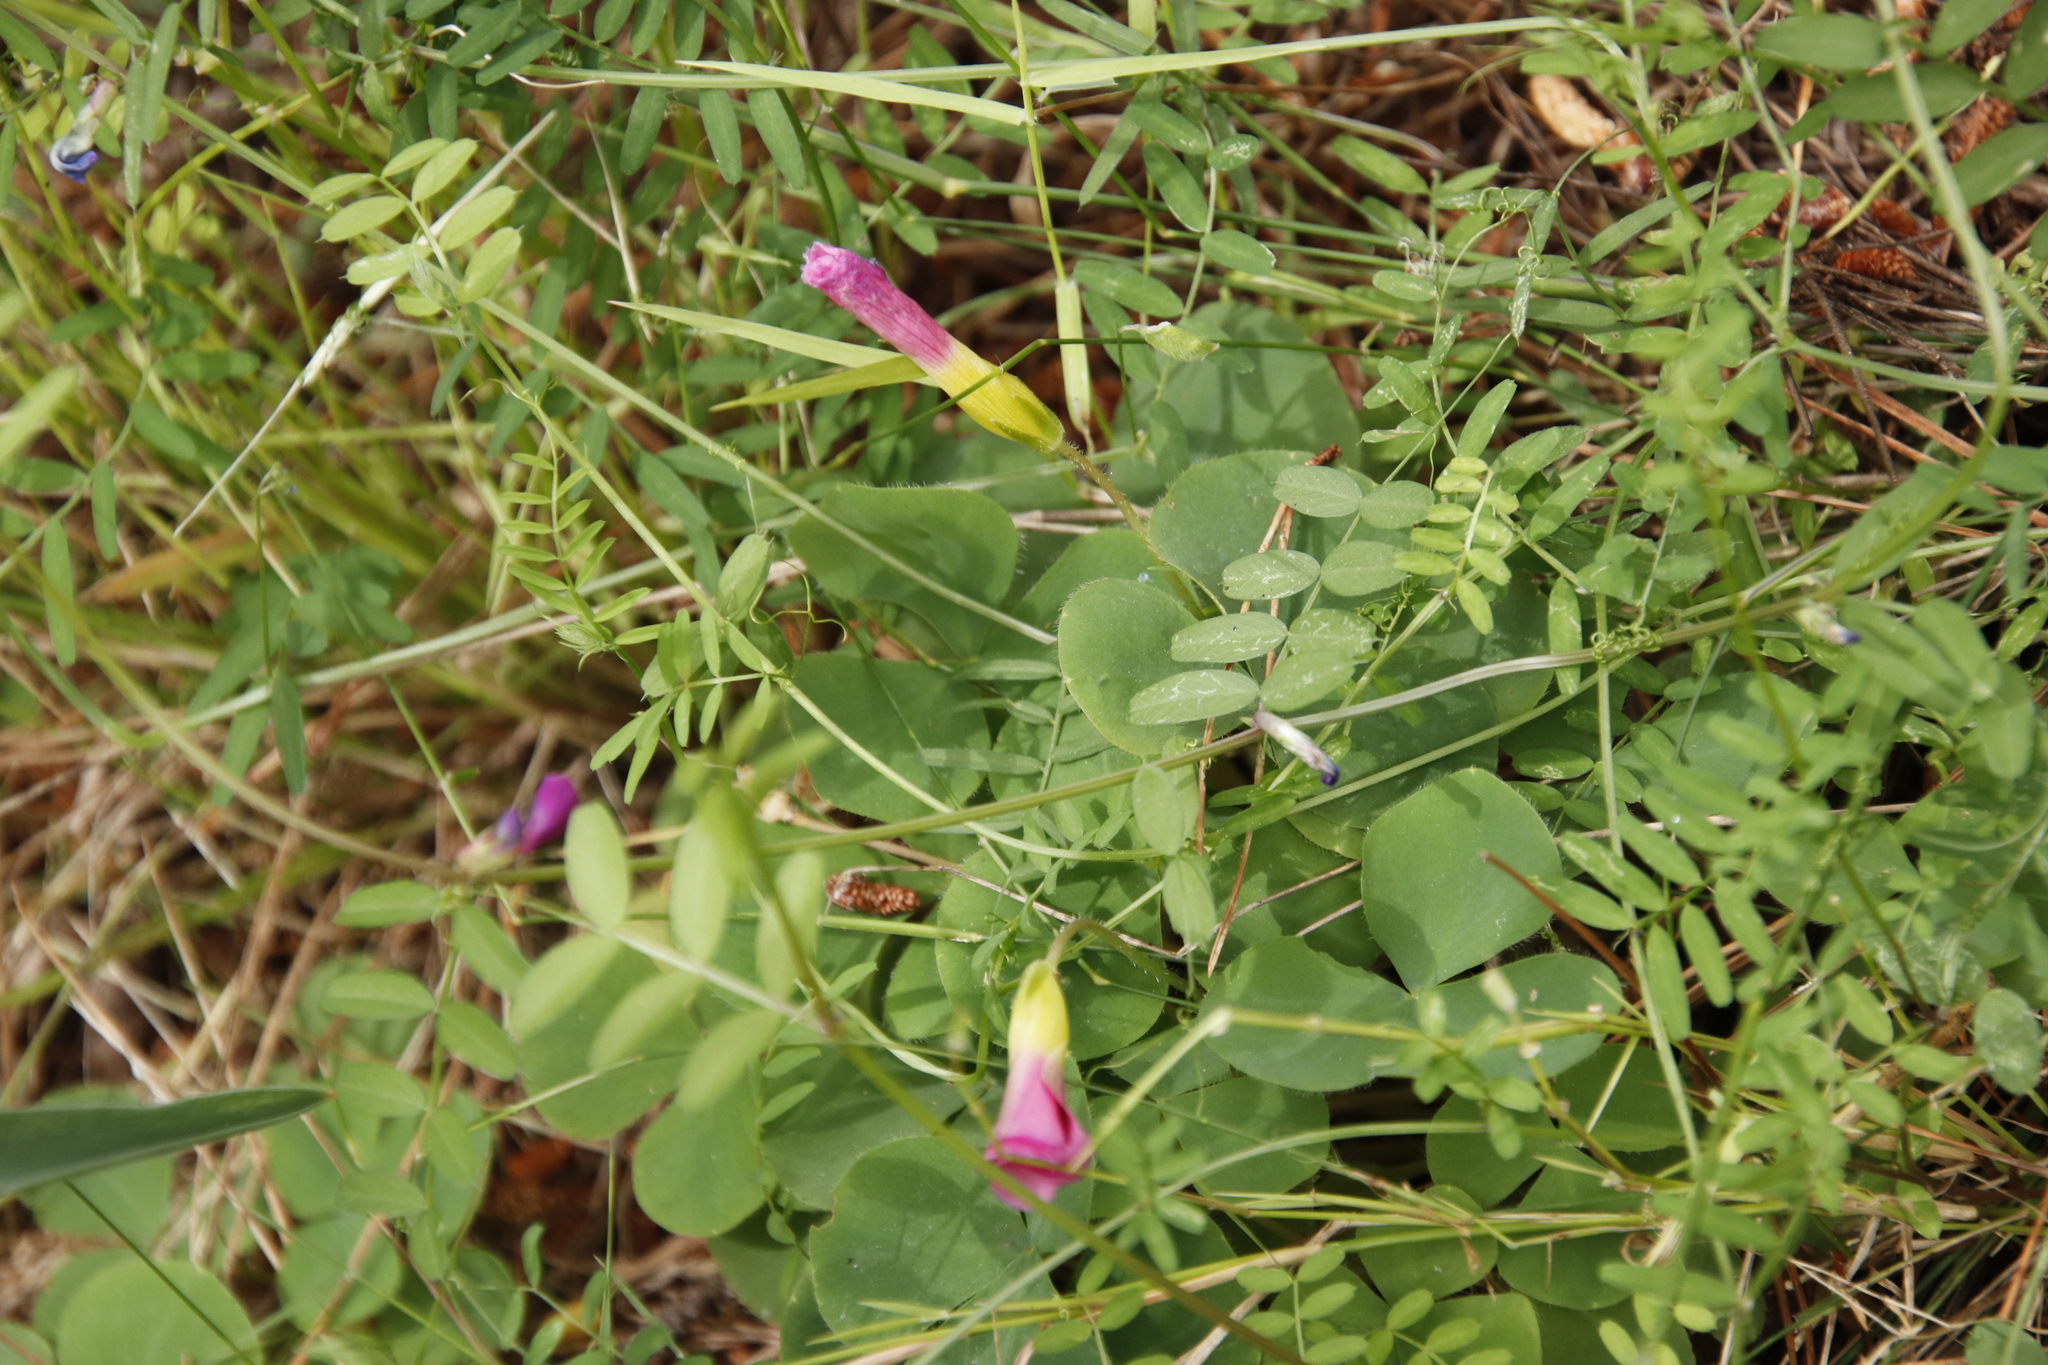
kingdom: Plantae
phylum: Tracheophyta
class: Magnoliopsida
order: Oxalidales
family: Oxalidaceae
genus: Oxalis
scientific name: Oxalis purpurea
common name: Purple woodsorrel
